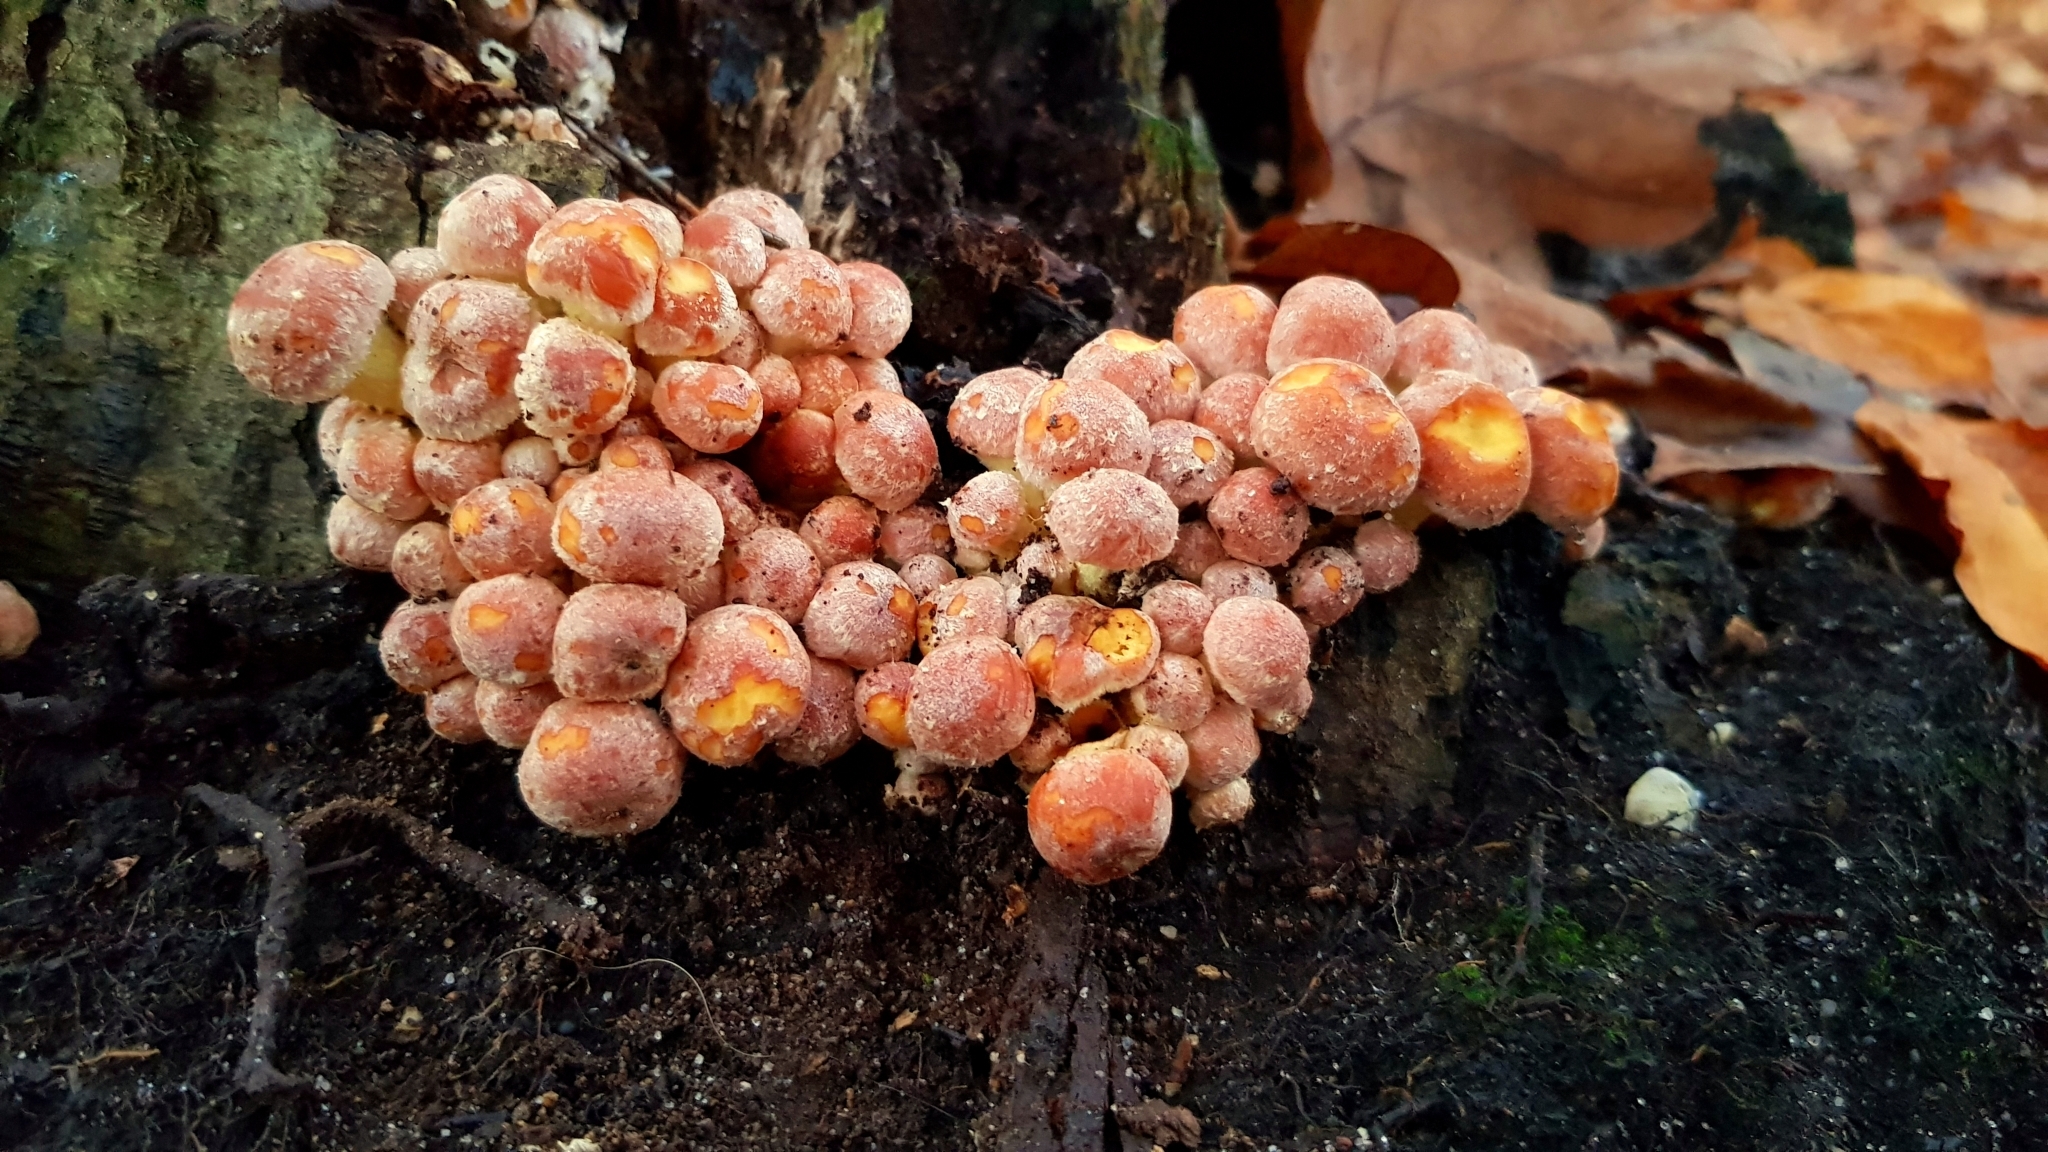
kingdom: Fungi
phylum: Basidiomycota
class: Agaricomycetes
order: Agaricales
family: Strophariaceae
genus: Hypholoma
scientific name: Hypholoma lateritium
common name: Brick caps
